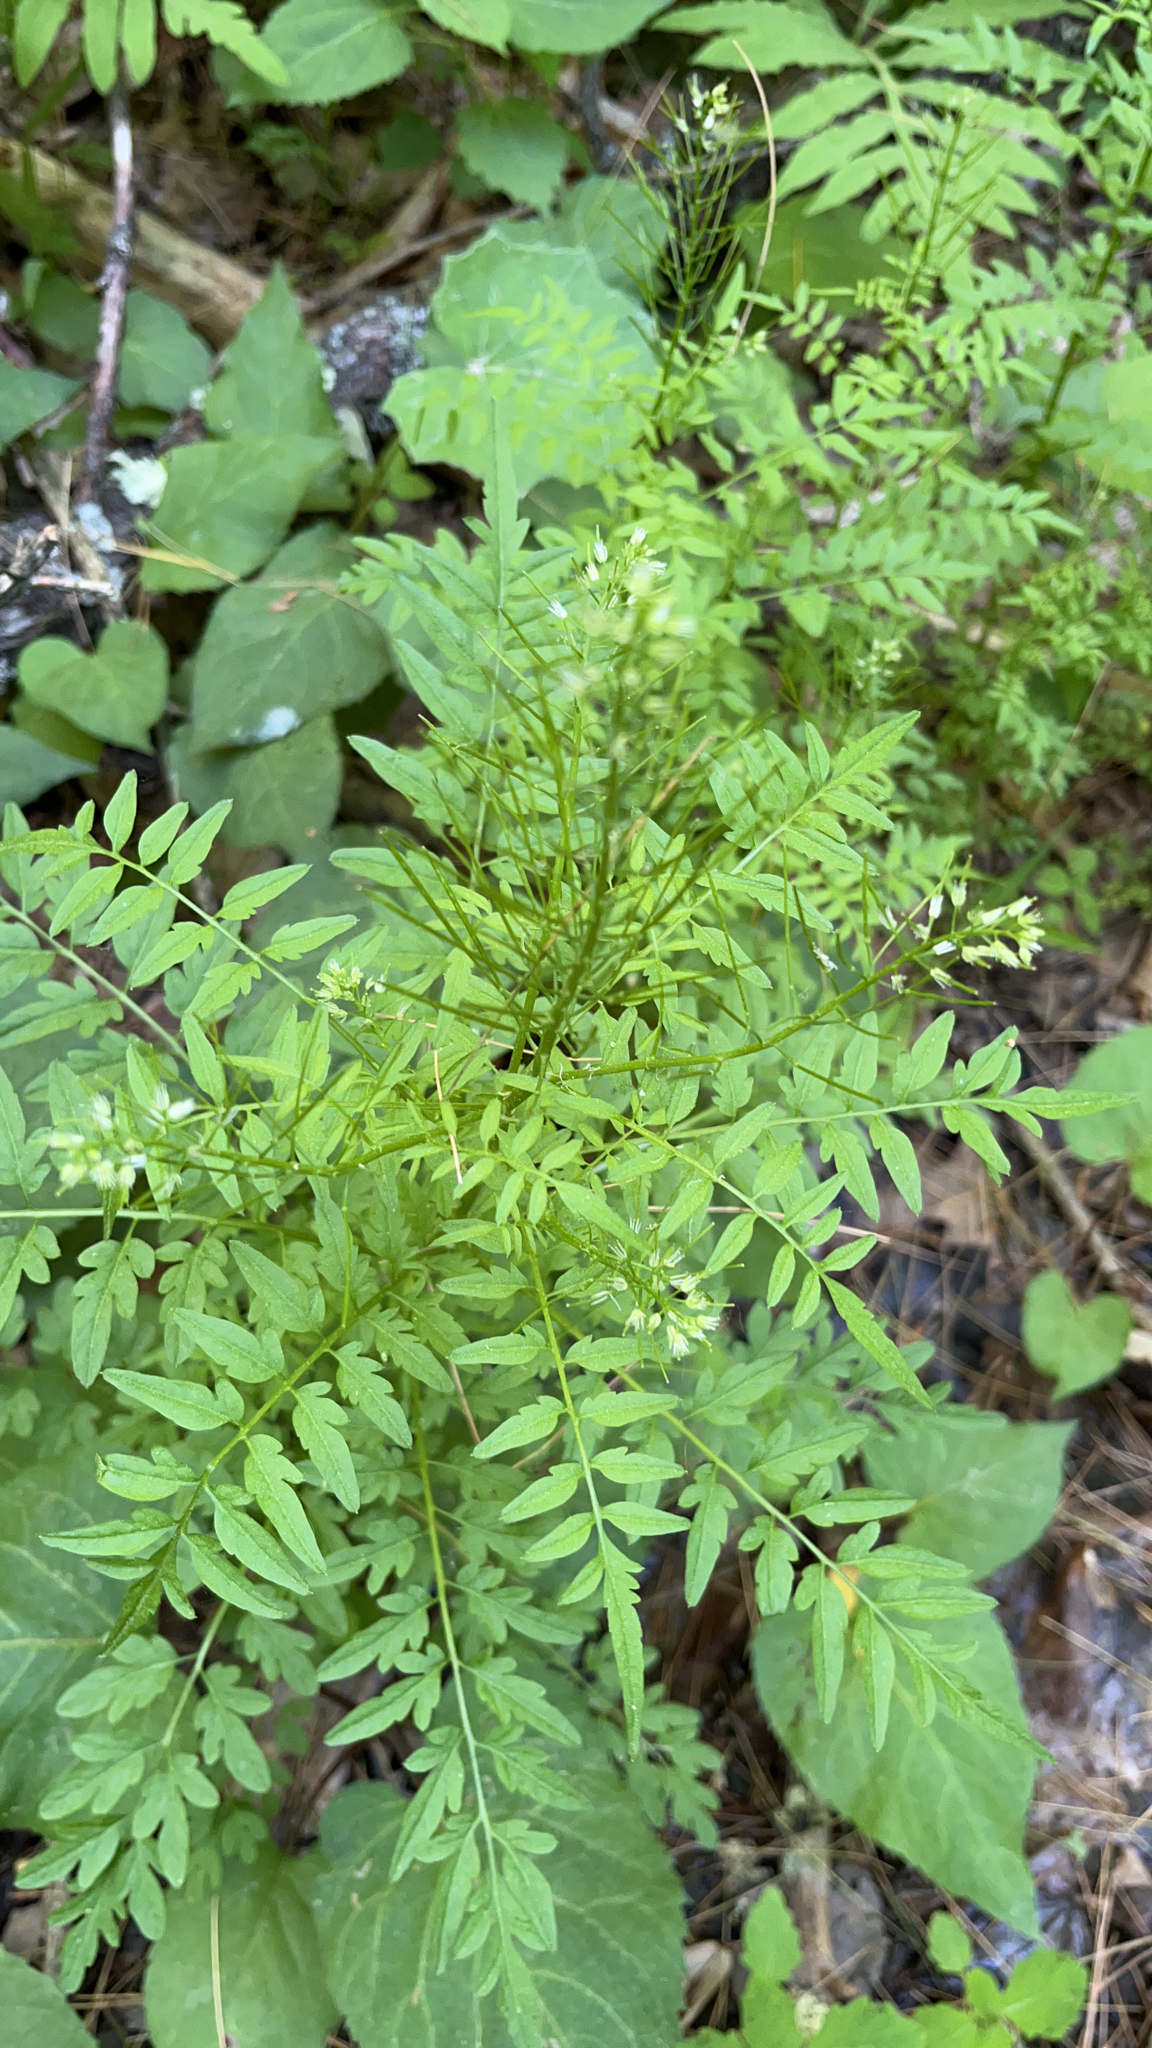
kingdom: Plantae
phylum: Tracheophyta
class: Magnoliopsida
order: Brassicales
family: Brassicaceae
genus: Cardamine
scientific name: Cardamine impatiens
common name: Narrow-leaved bitter-cress
